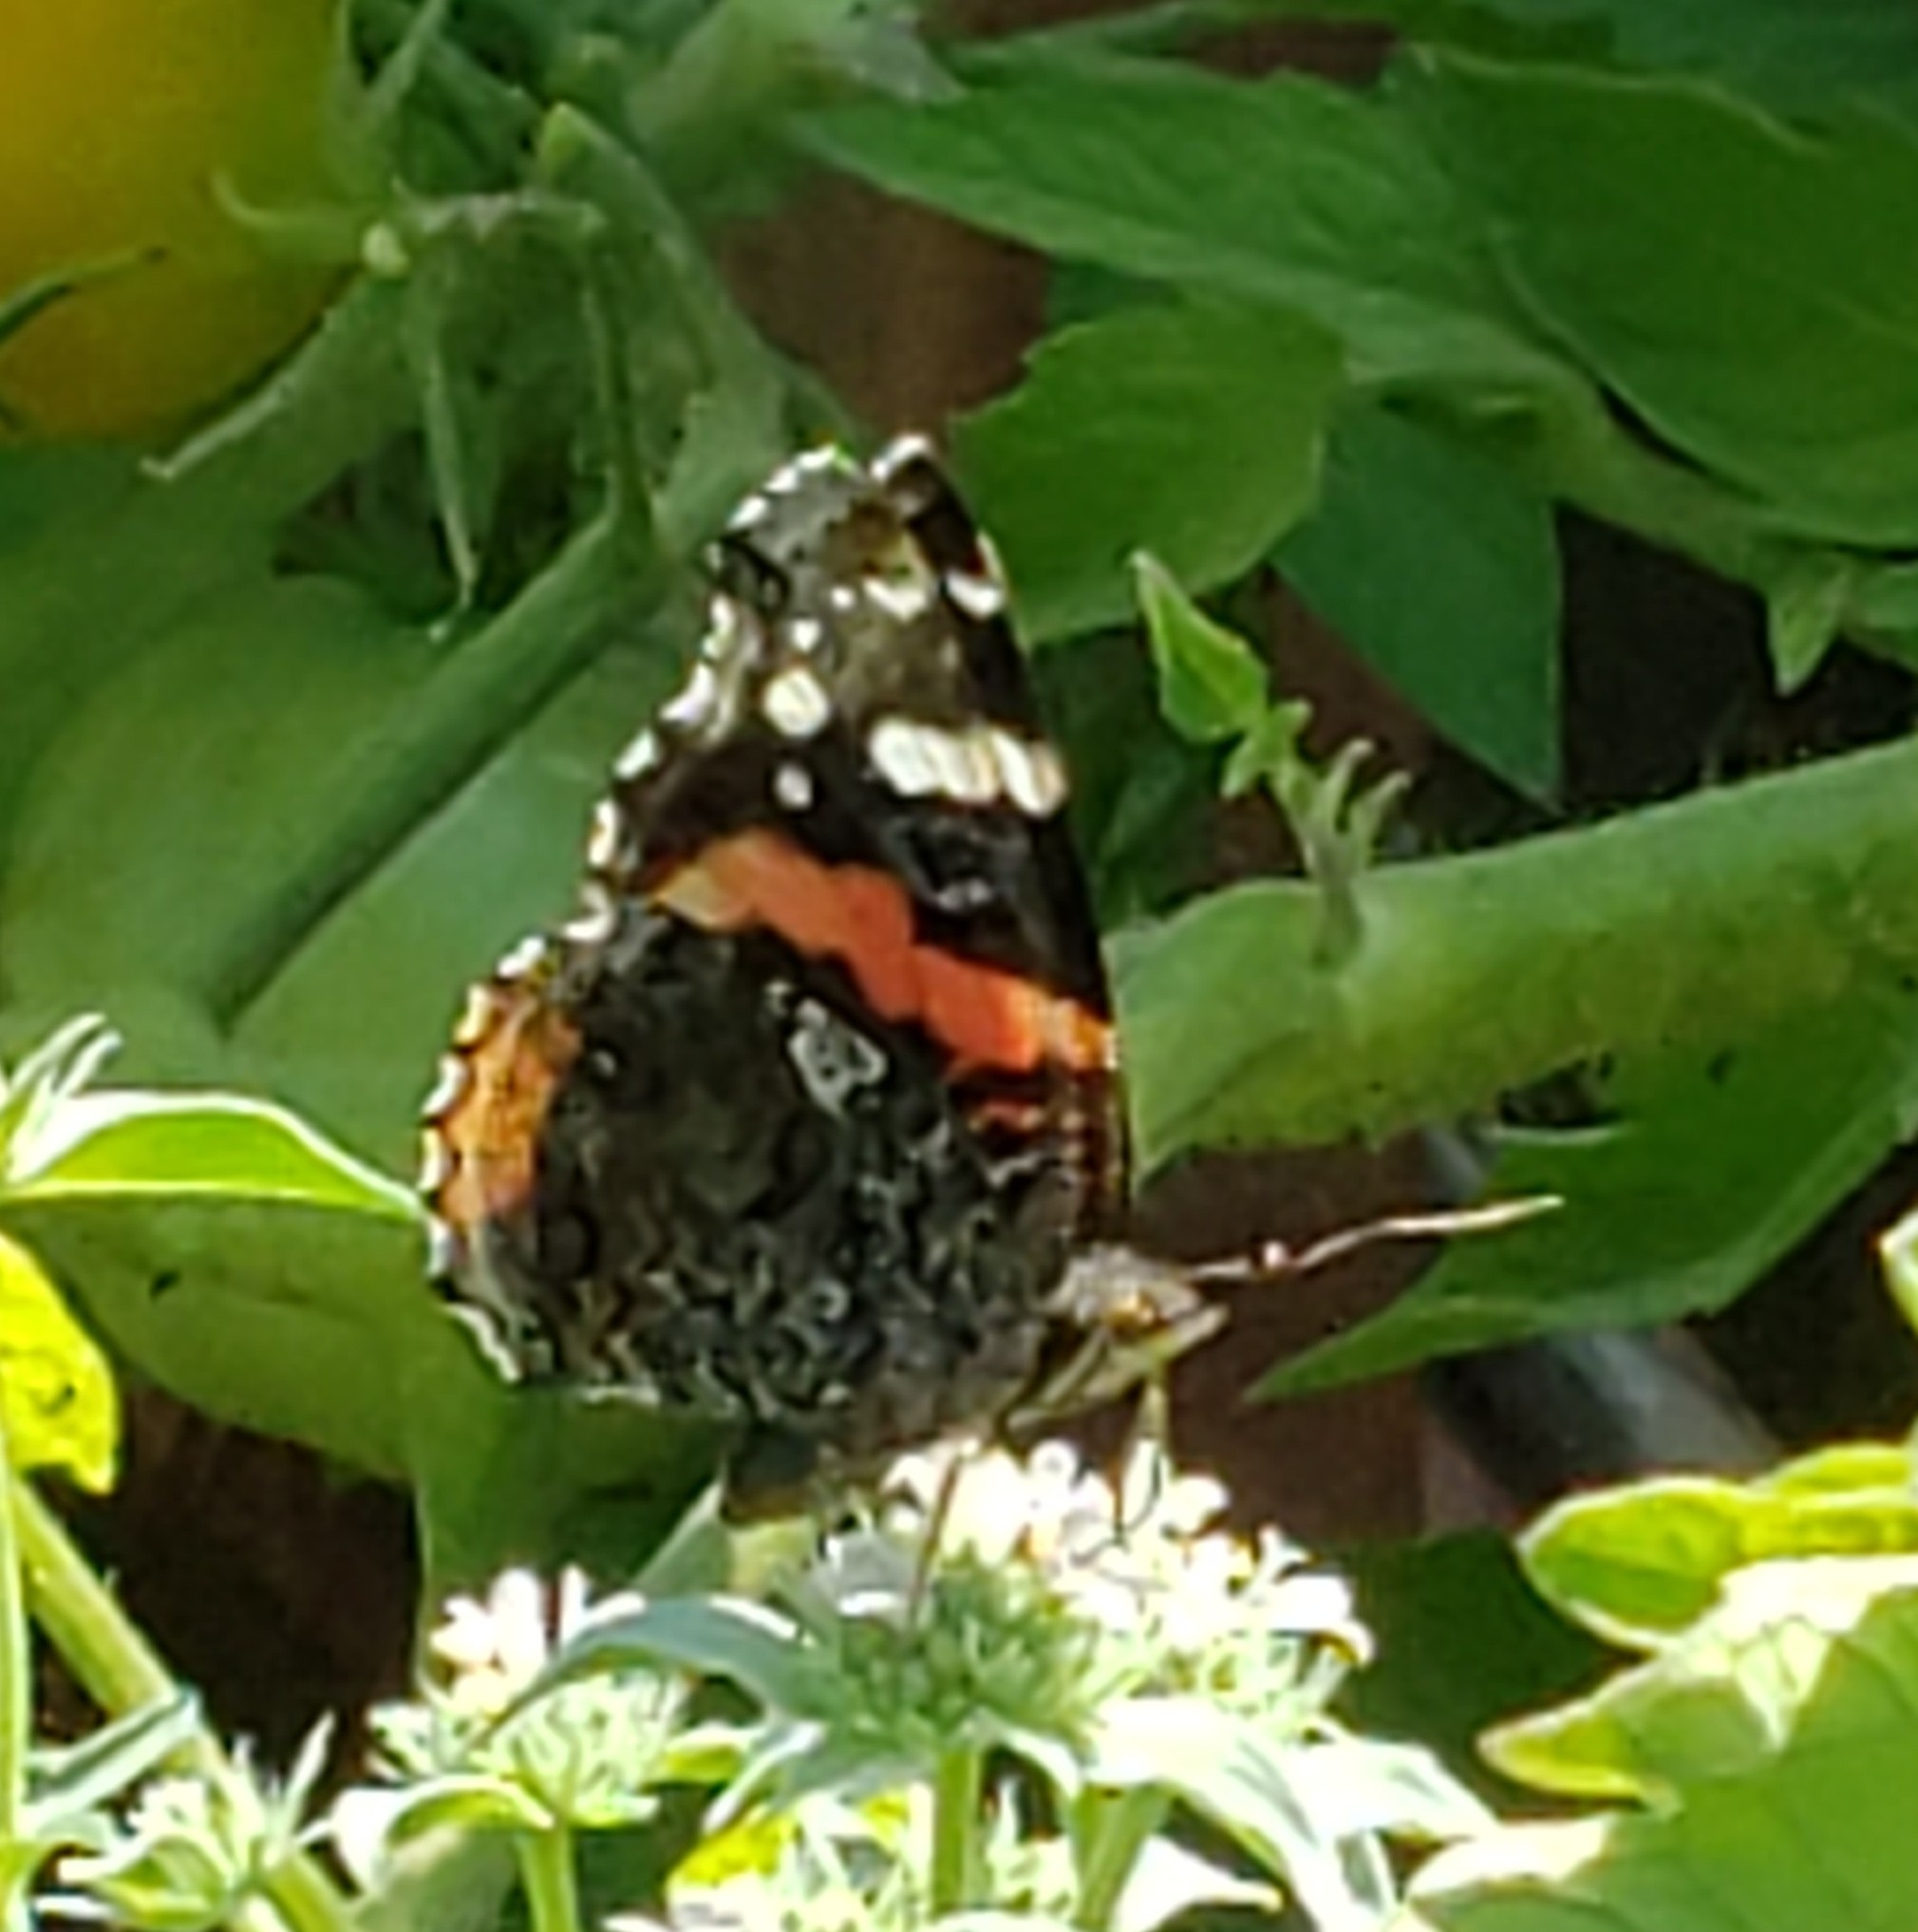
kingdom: Animalia
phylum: Arthropoda
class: Insecta
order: Lepidoptera
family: Nymphalidae
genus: Vanessa
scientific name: Vanessa atalanta
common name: Red admiral
